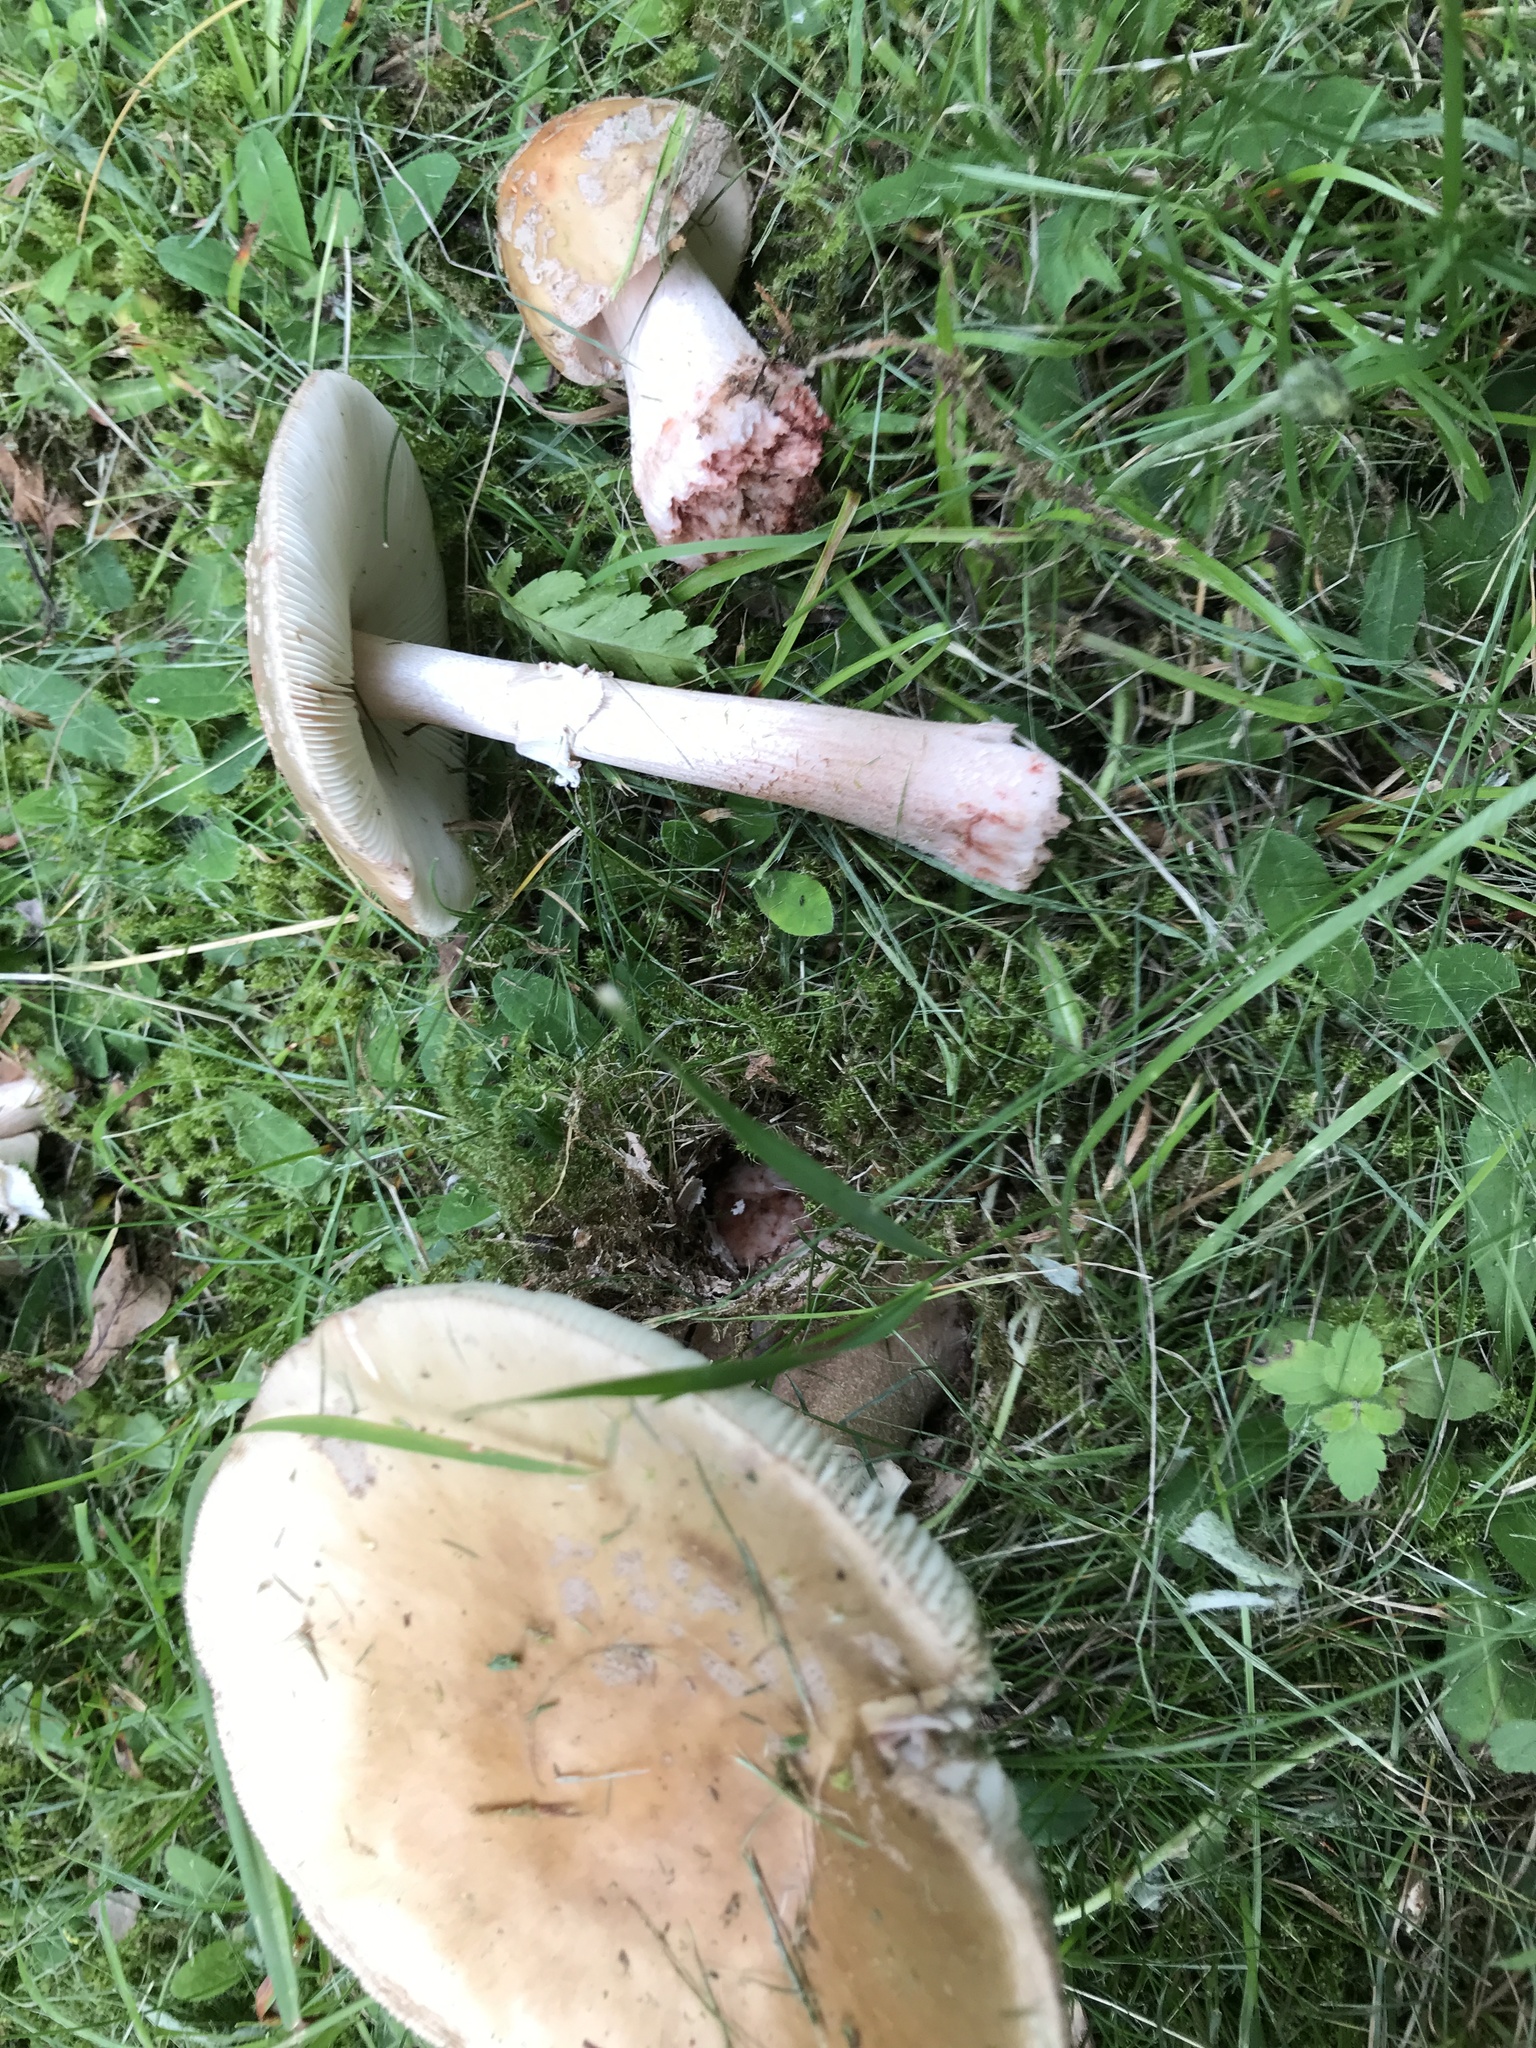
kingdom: Fungi
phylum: Basidiomycota
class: Agaricomycetes
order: Agaricales
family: Amanitaceae
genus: Amanita
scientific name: Amanita rubescens
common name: Blusher
